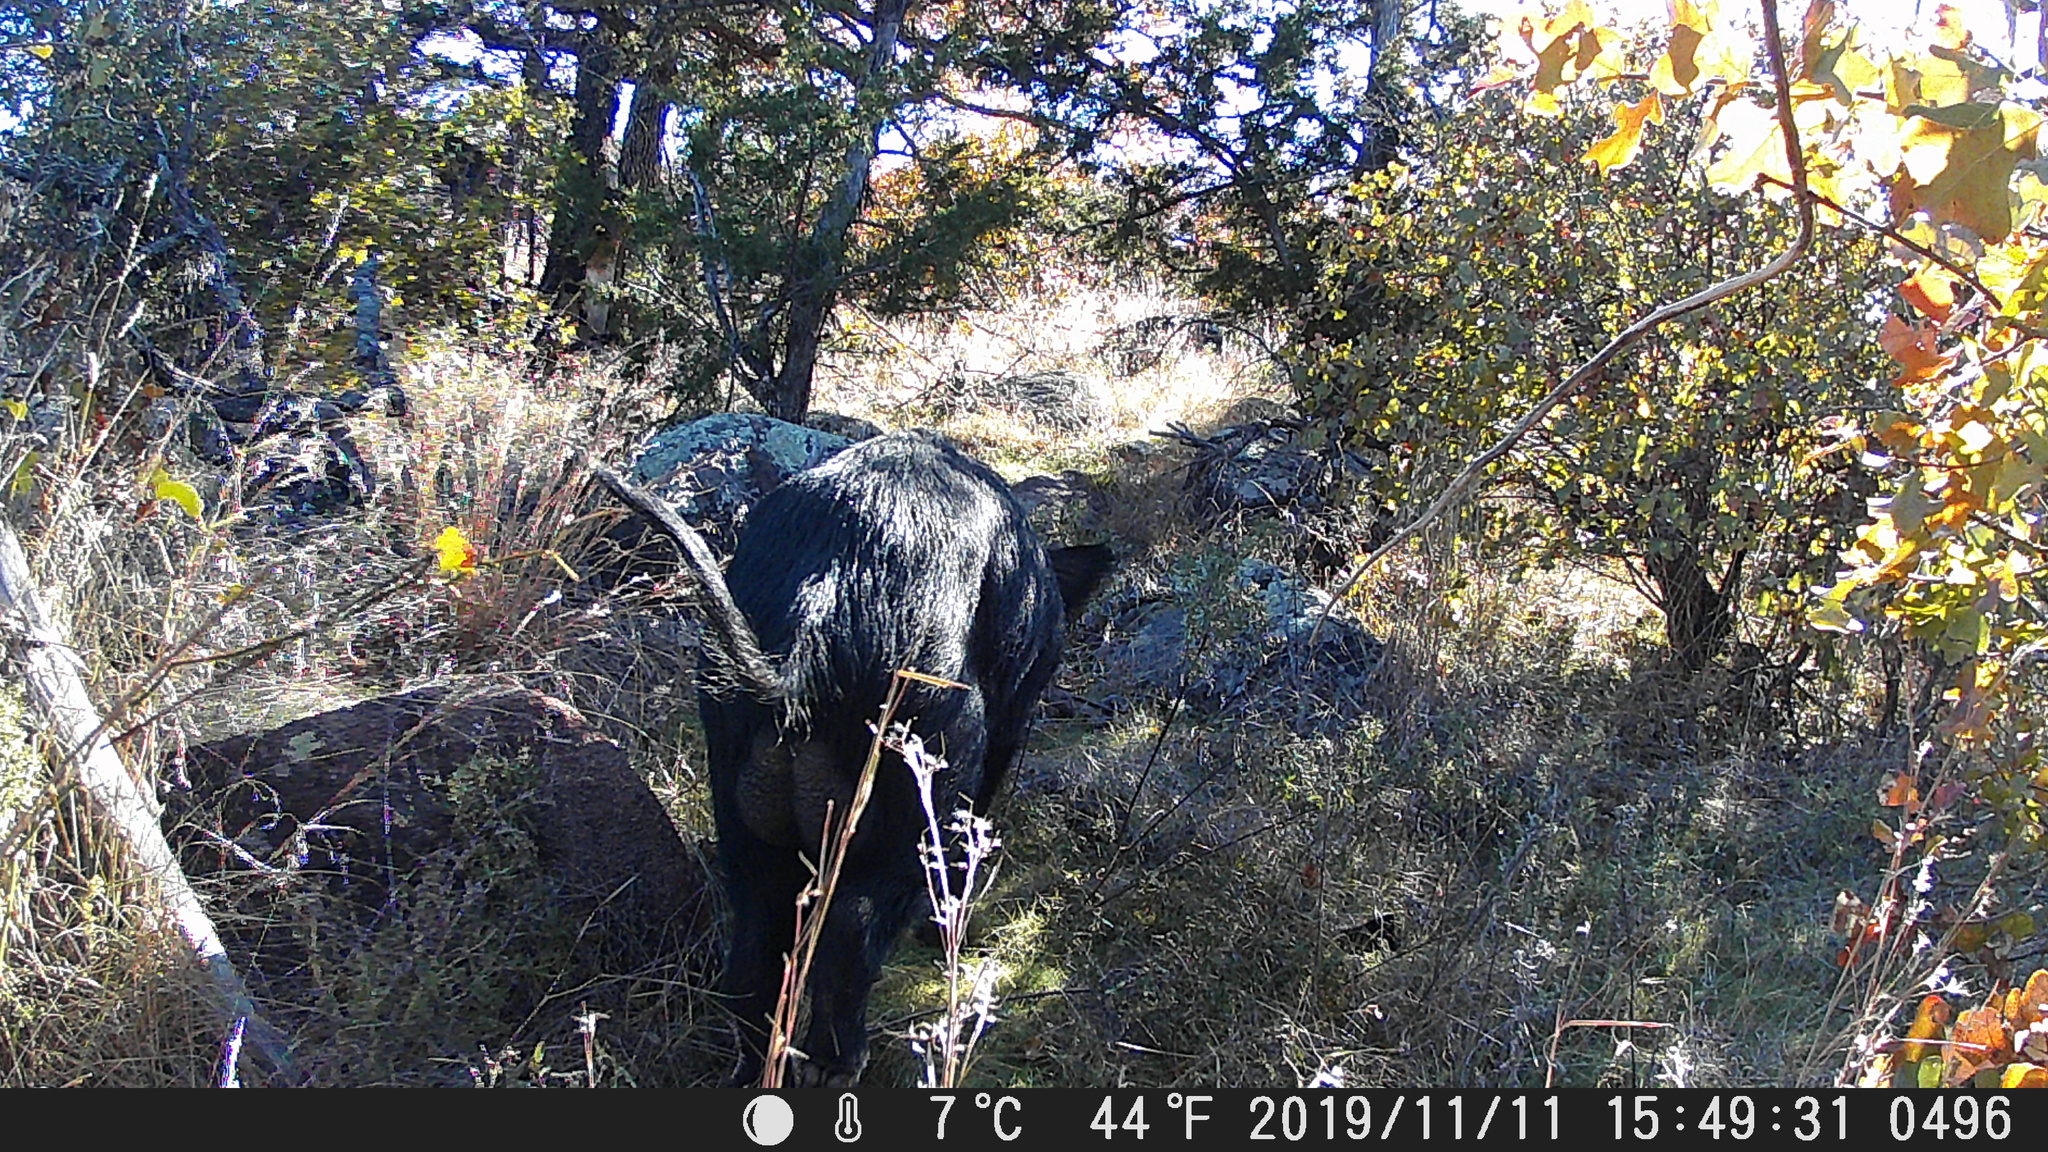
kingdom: Animalia
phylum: Chordata
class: Mammalia
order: Artiodactyla
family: Suidae
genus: Sus
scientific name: Sus scrofa
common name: Wild boar
